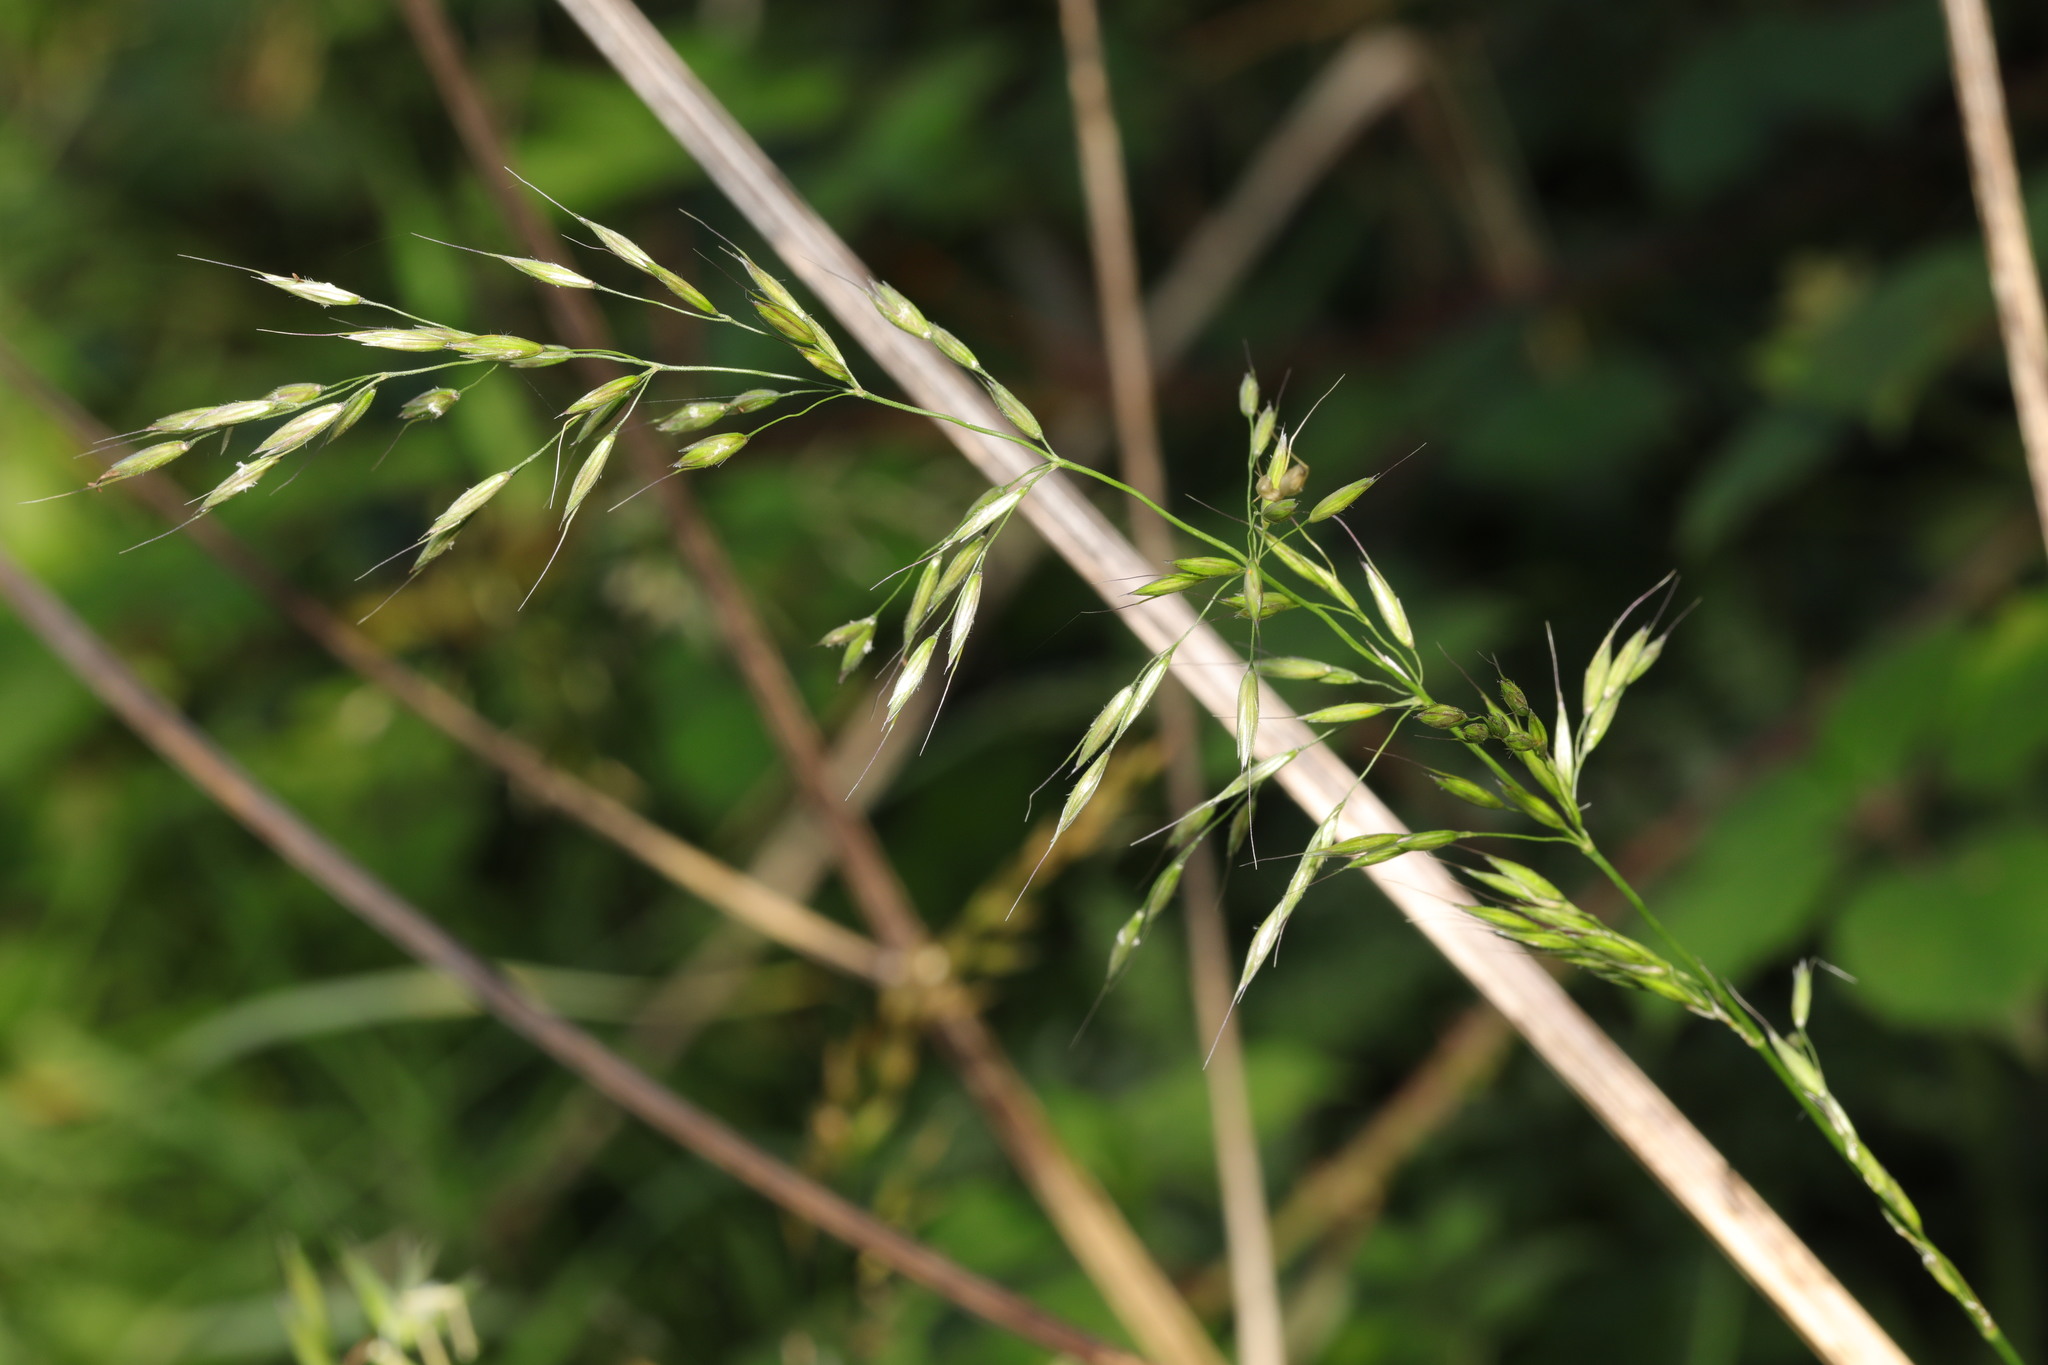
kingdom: Plantae
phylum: Tracheophyta
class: Liliopsida
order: Poales
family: Poaceae
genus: Arrhenatherum
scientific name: Arrhenatherum elatius
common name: Tall oatgrass
